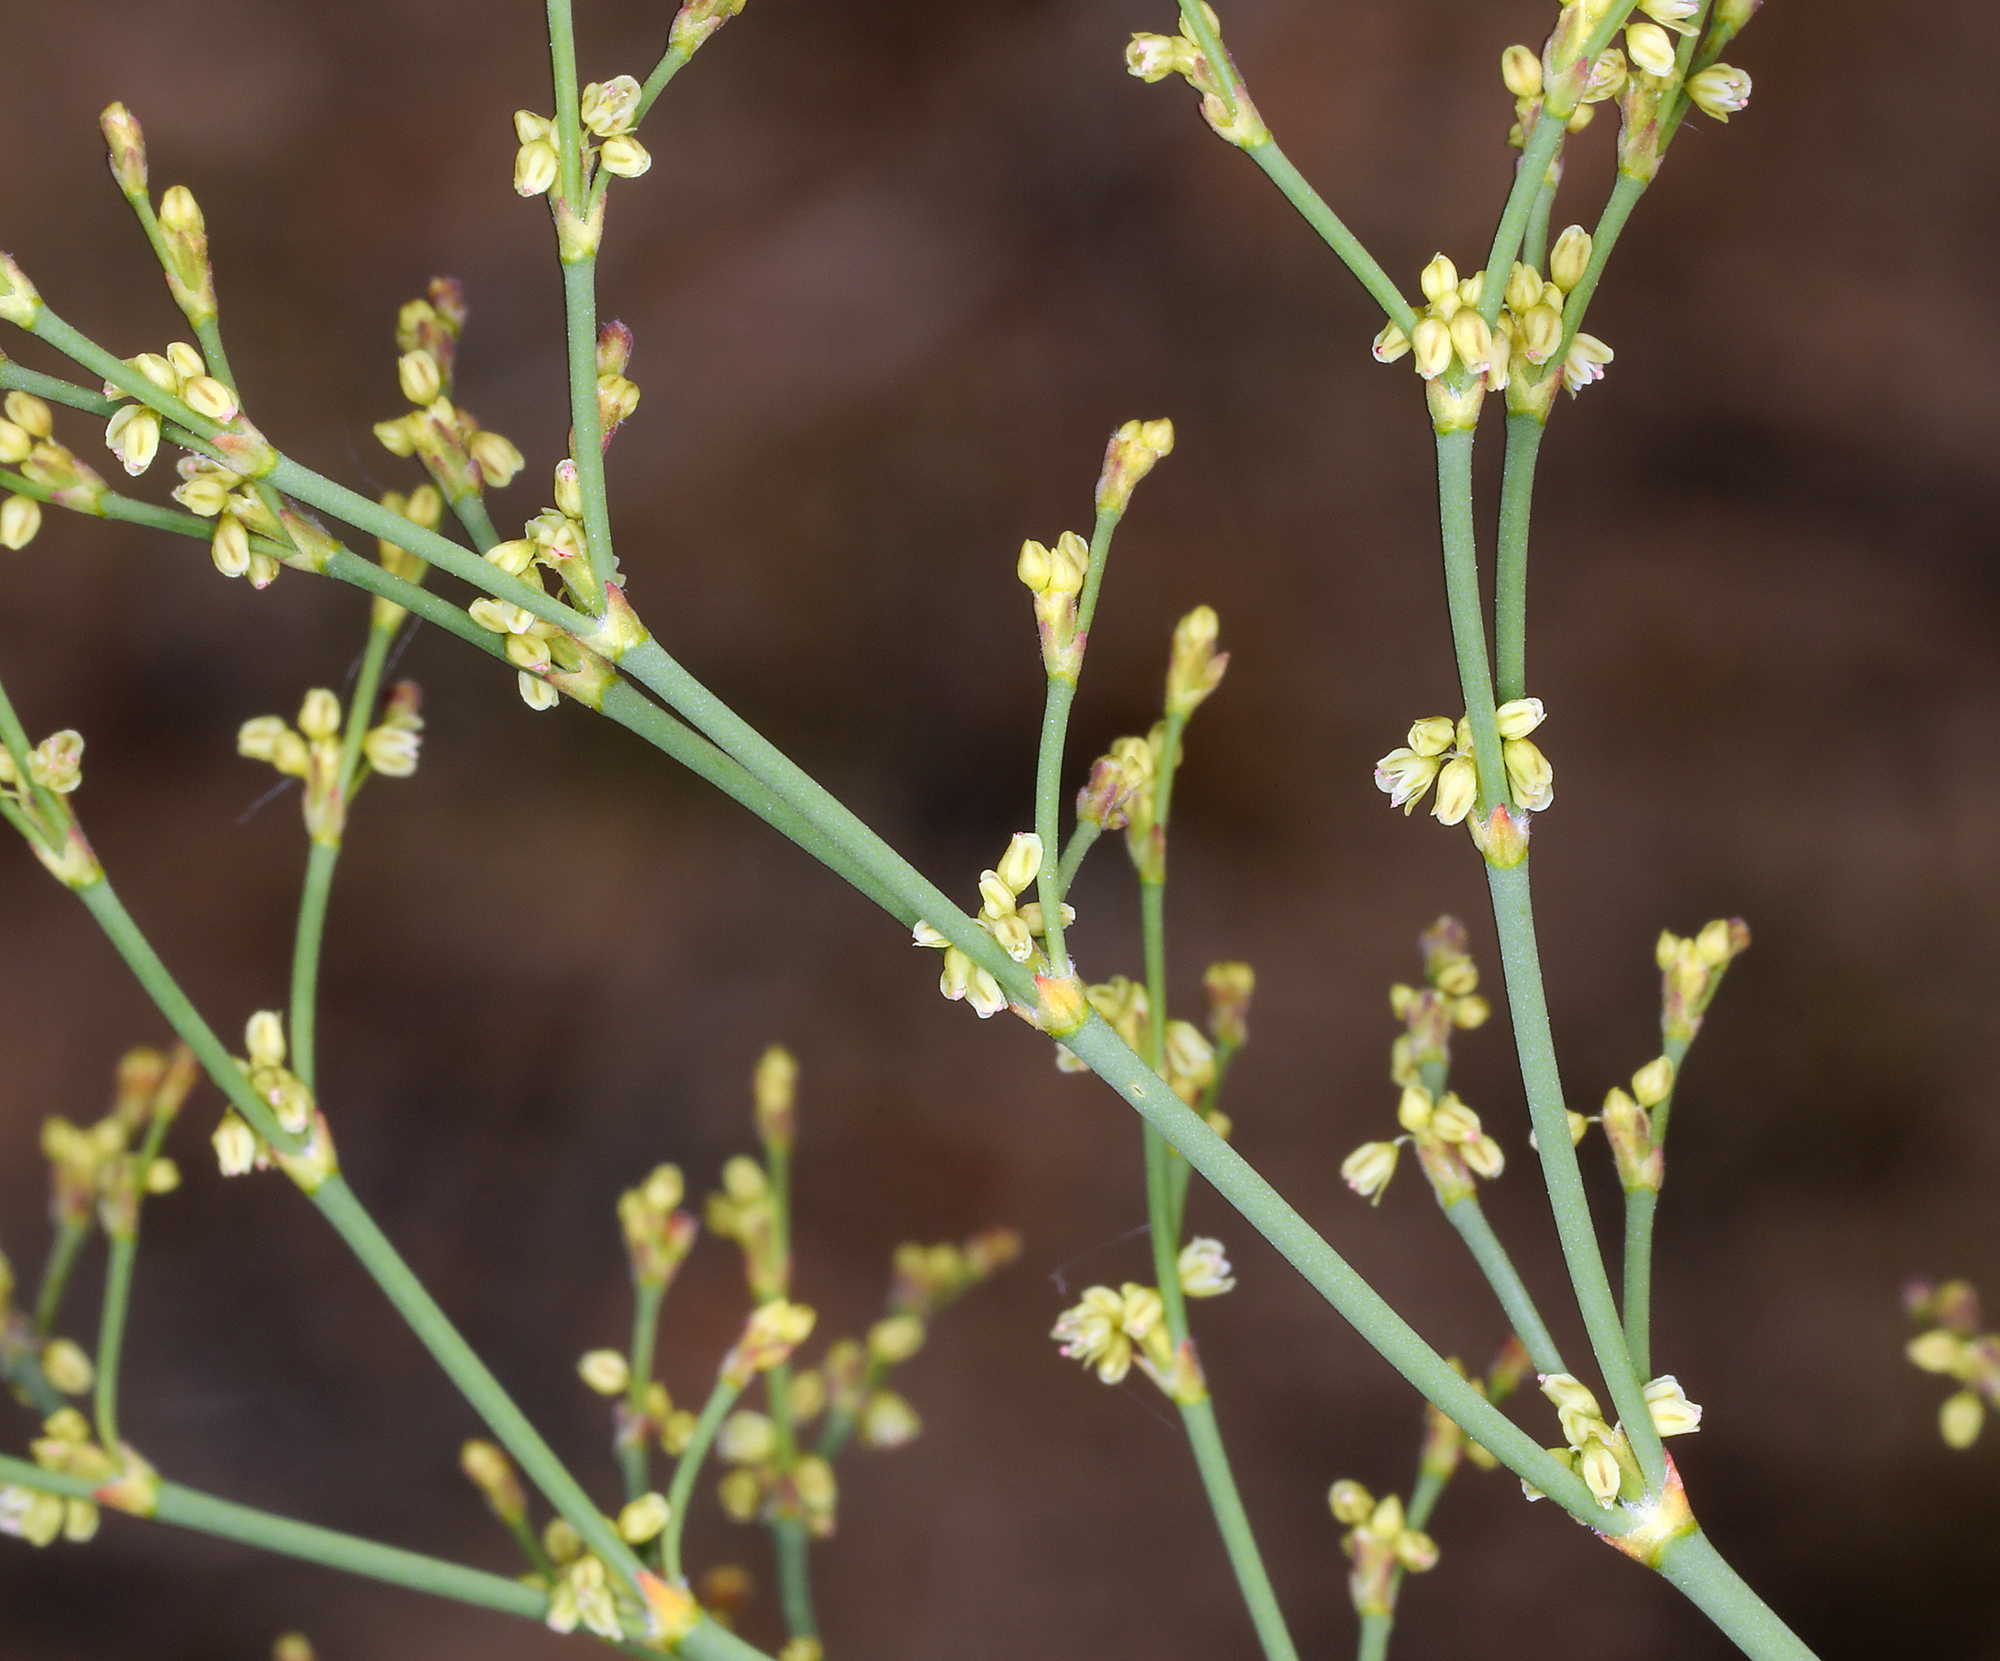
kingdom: Plantae
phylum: Tracheophyta
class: Magnoliopsida
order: Caryophyllales
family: Polygonaceae
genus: Eriogonum
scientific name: Eriogonum brachyanthum
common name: Short-flower wild buckwheat
